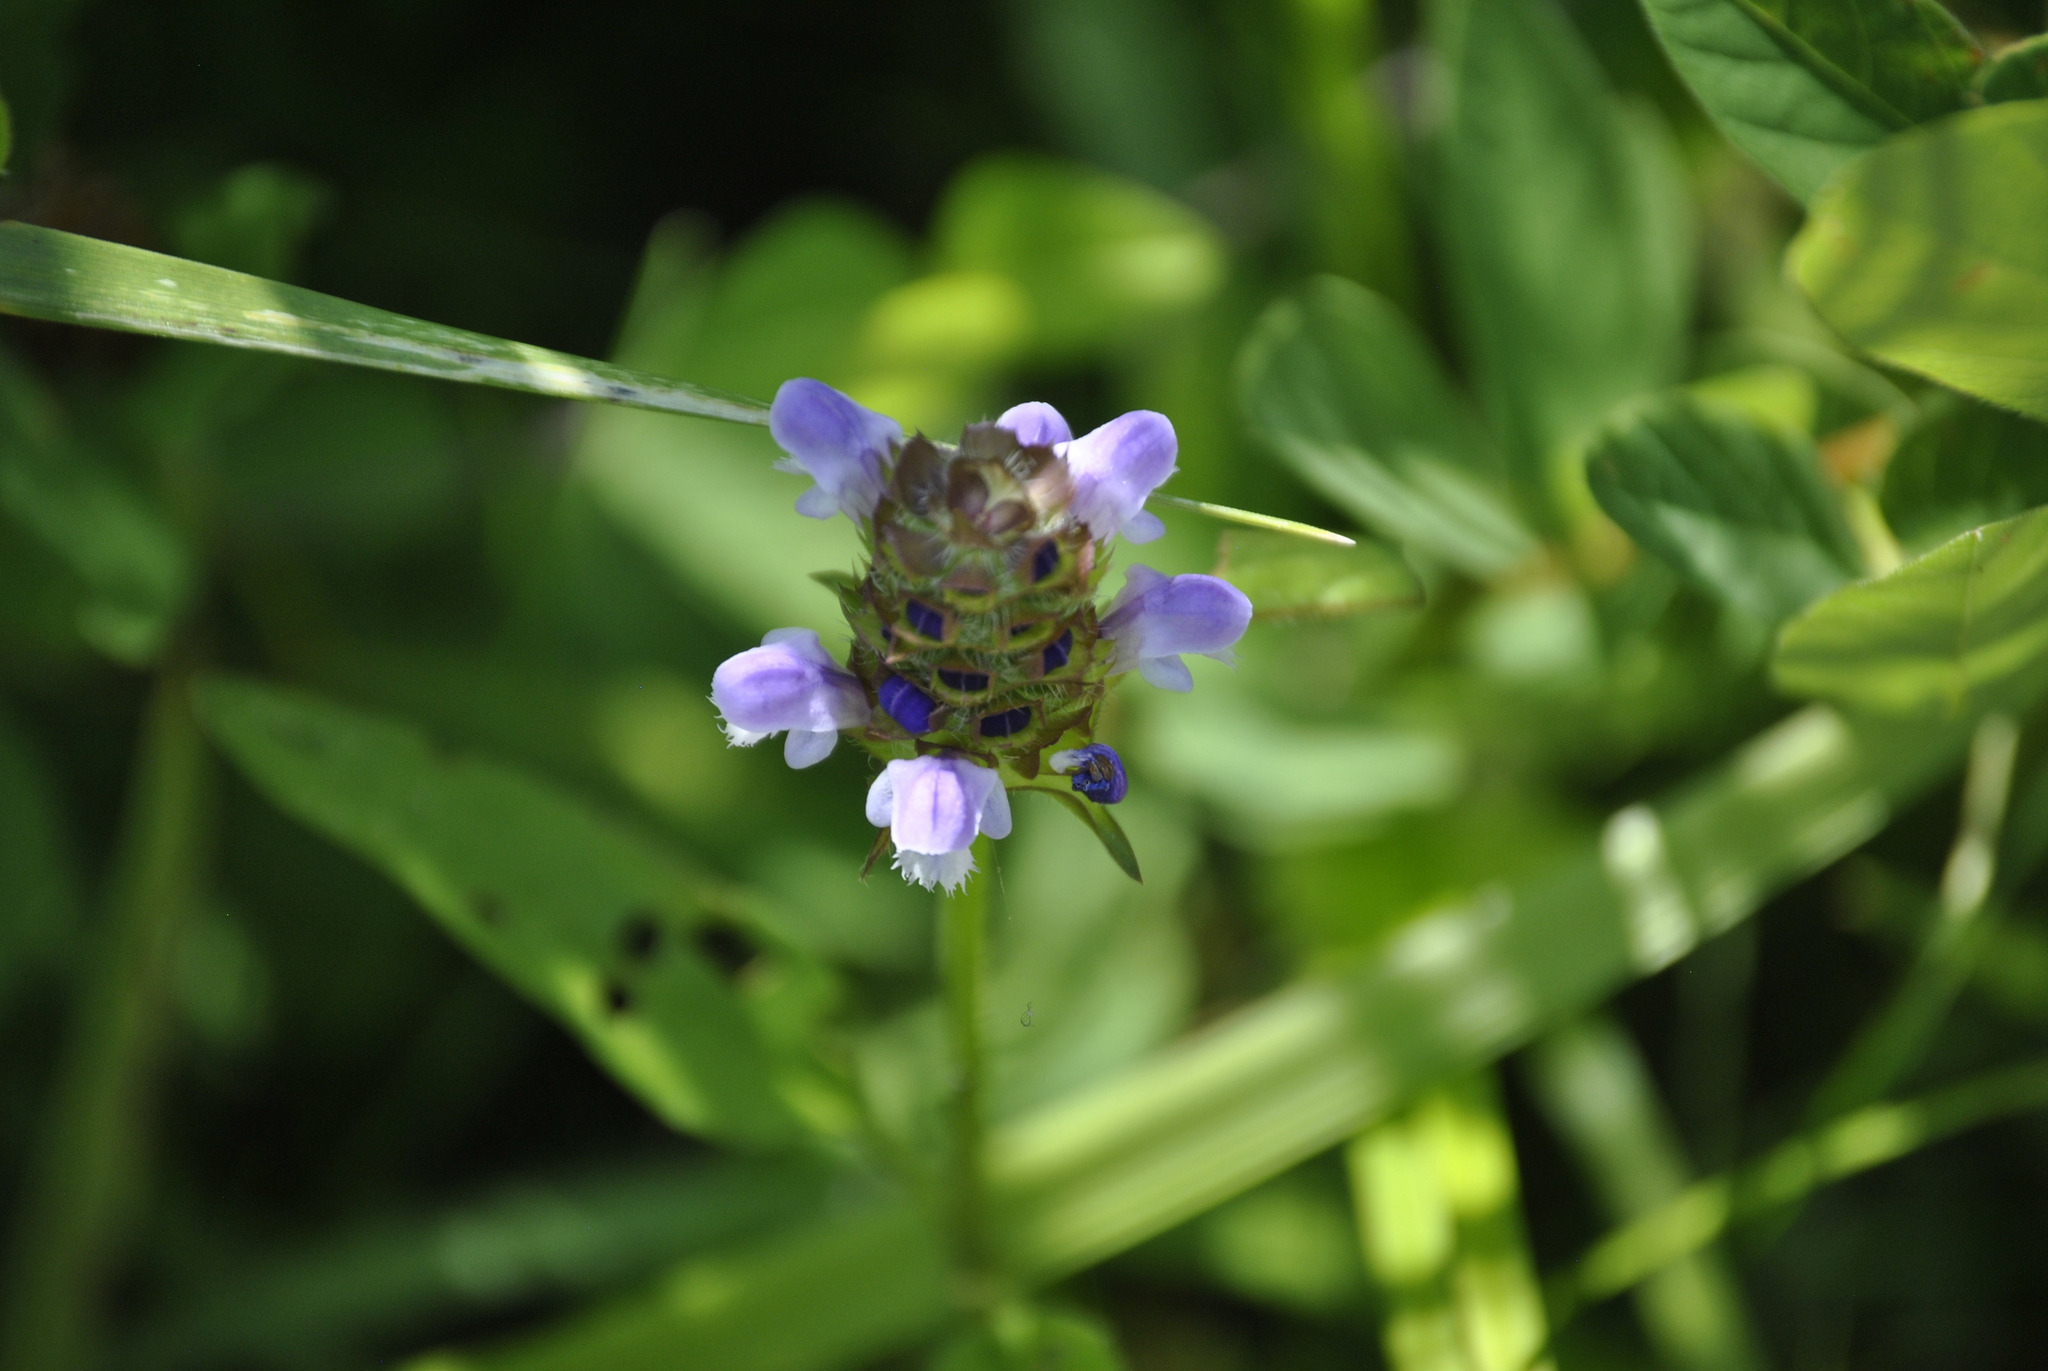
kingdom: Plantae
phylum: Tracheophyta
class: Magnoliopsida
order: Lamiales
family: Lamiaceae
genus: Prunella
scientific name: Prunella vulgaris
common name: Heal-all
